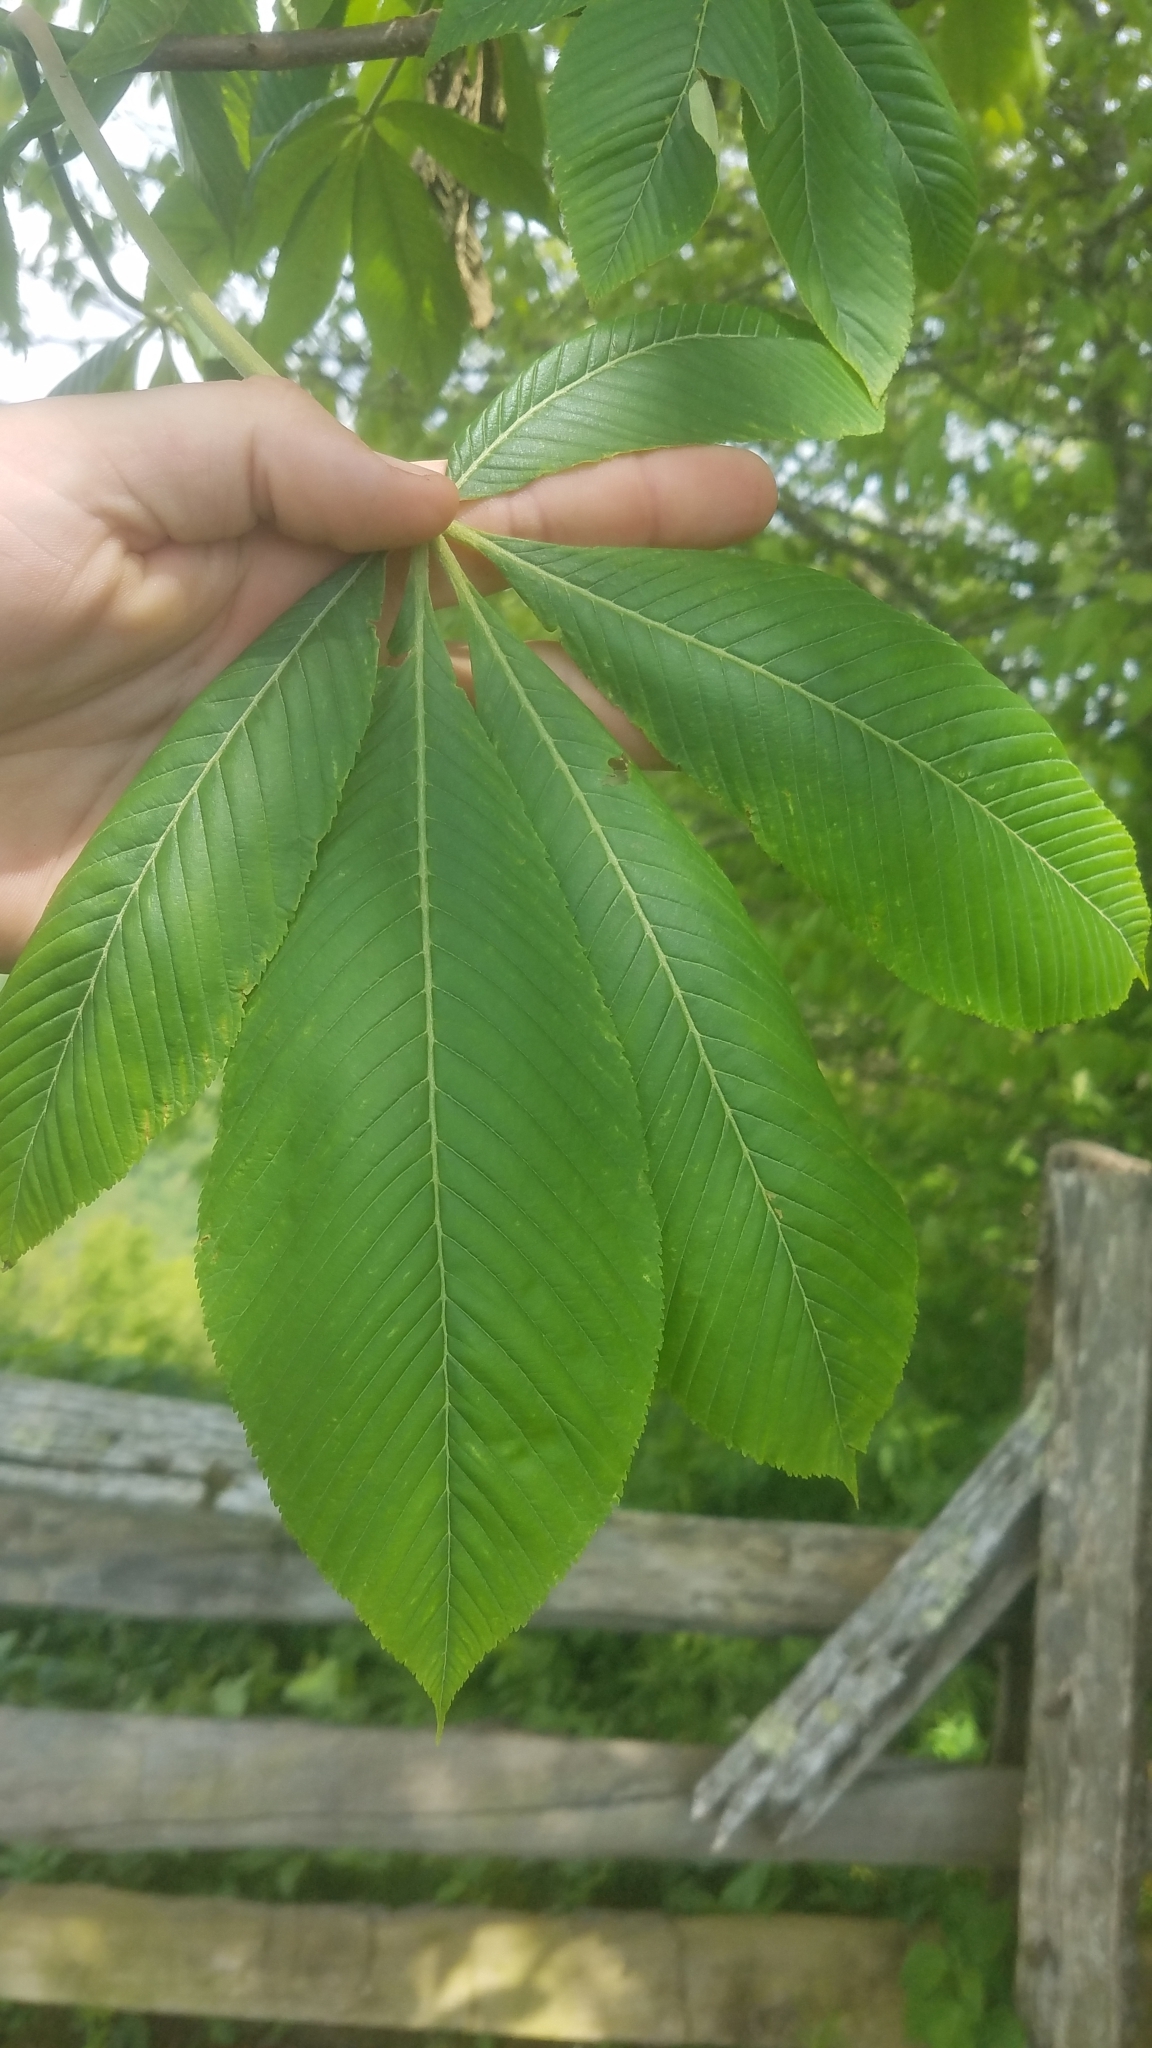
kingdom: Plantae
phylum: Tracheophyta
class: Magnoliopsida
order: Sapindales
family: Sapindaceae
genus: Aesculus
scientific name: Aesculus flava
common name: Yellow buckeye
